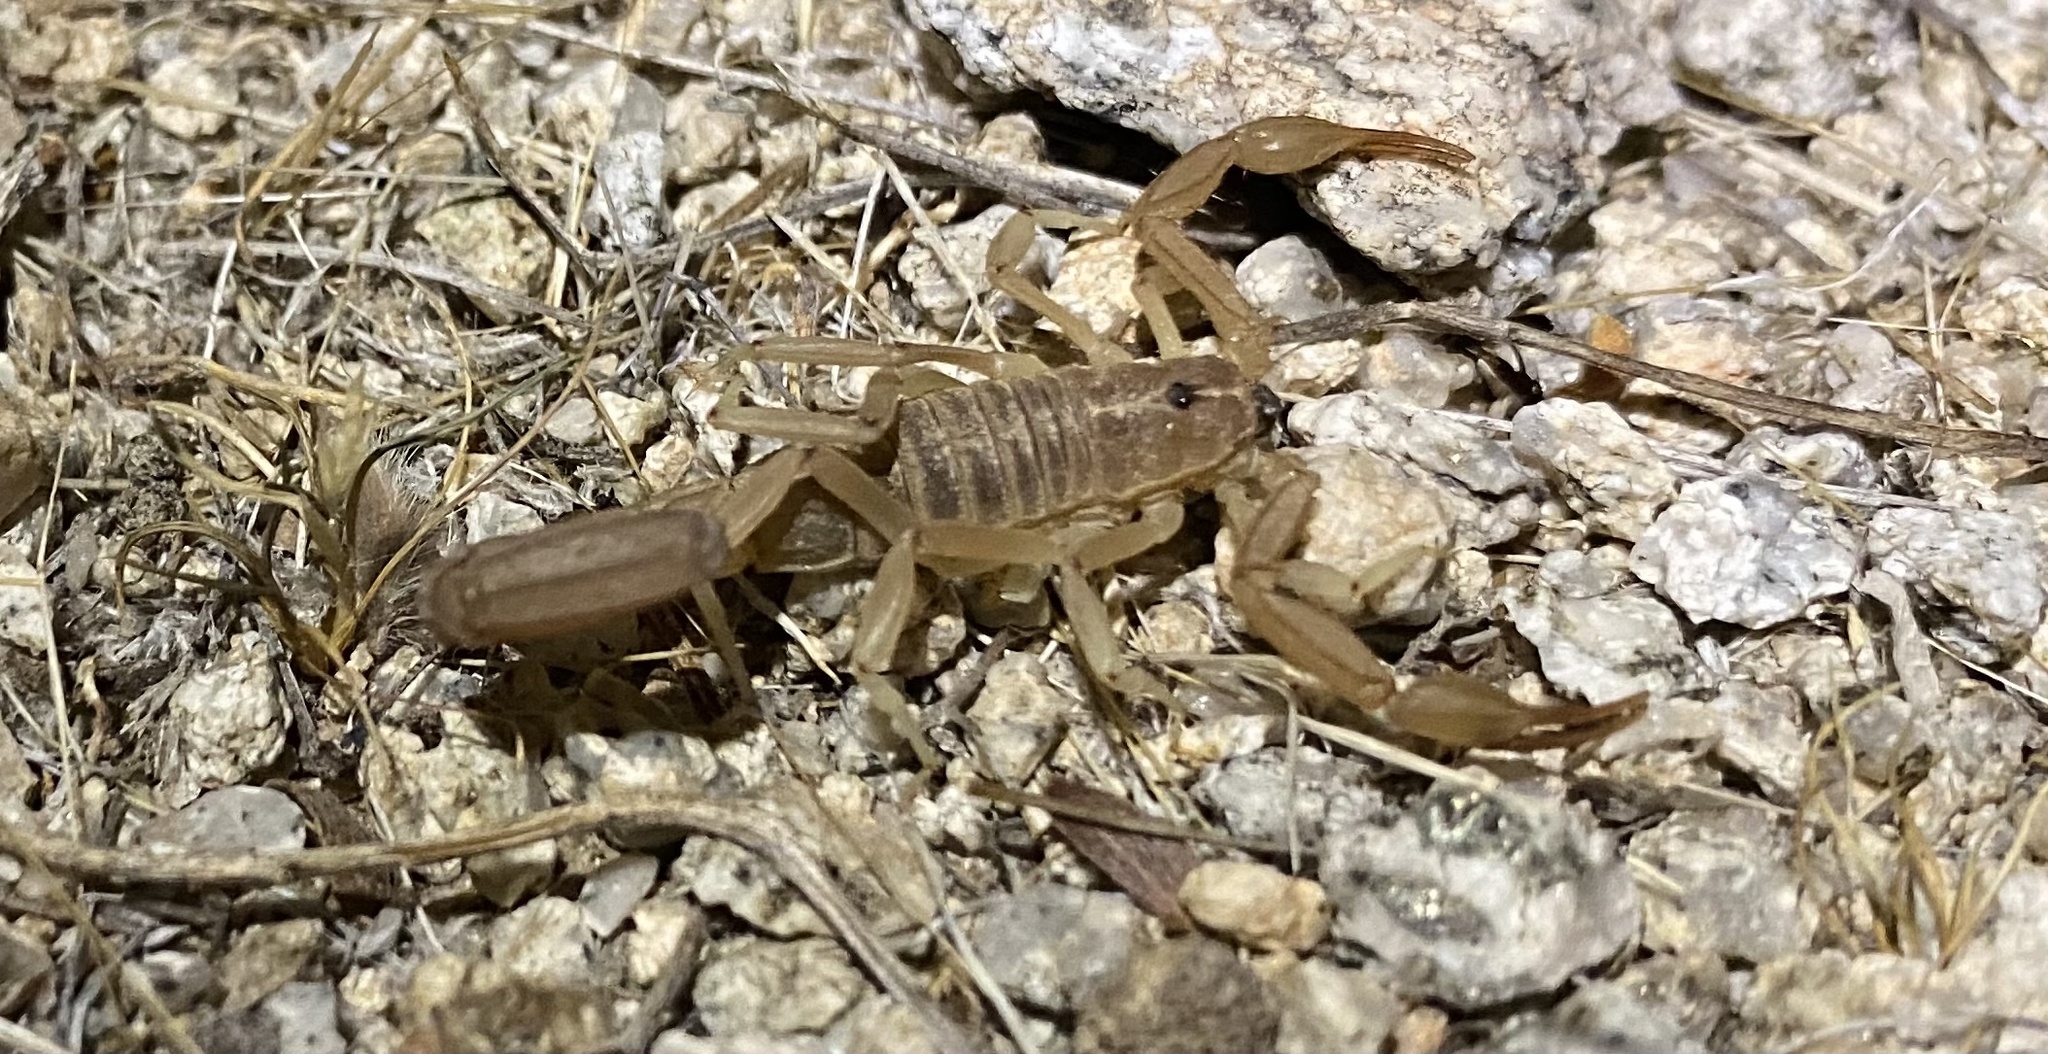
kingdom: Animalia
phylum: Arthropoda
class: Arachnida
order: Scorpiones
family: Vaejovidae
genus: Paravaejovis
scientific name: Paravaejovis confusus
